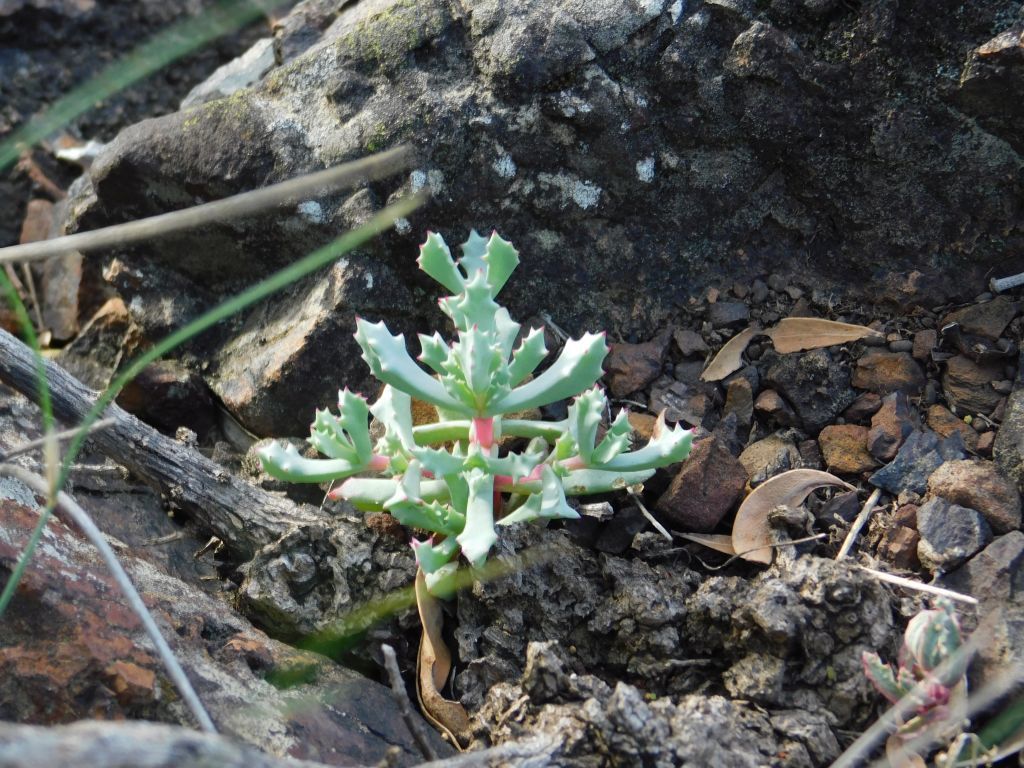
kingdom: Plantae
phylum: Tracheophyta
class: Magnoliopsida
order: Caryophyllales
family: Aizoaceae
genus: Oscularia
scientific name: Oscularia deltoides
